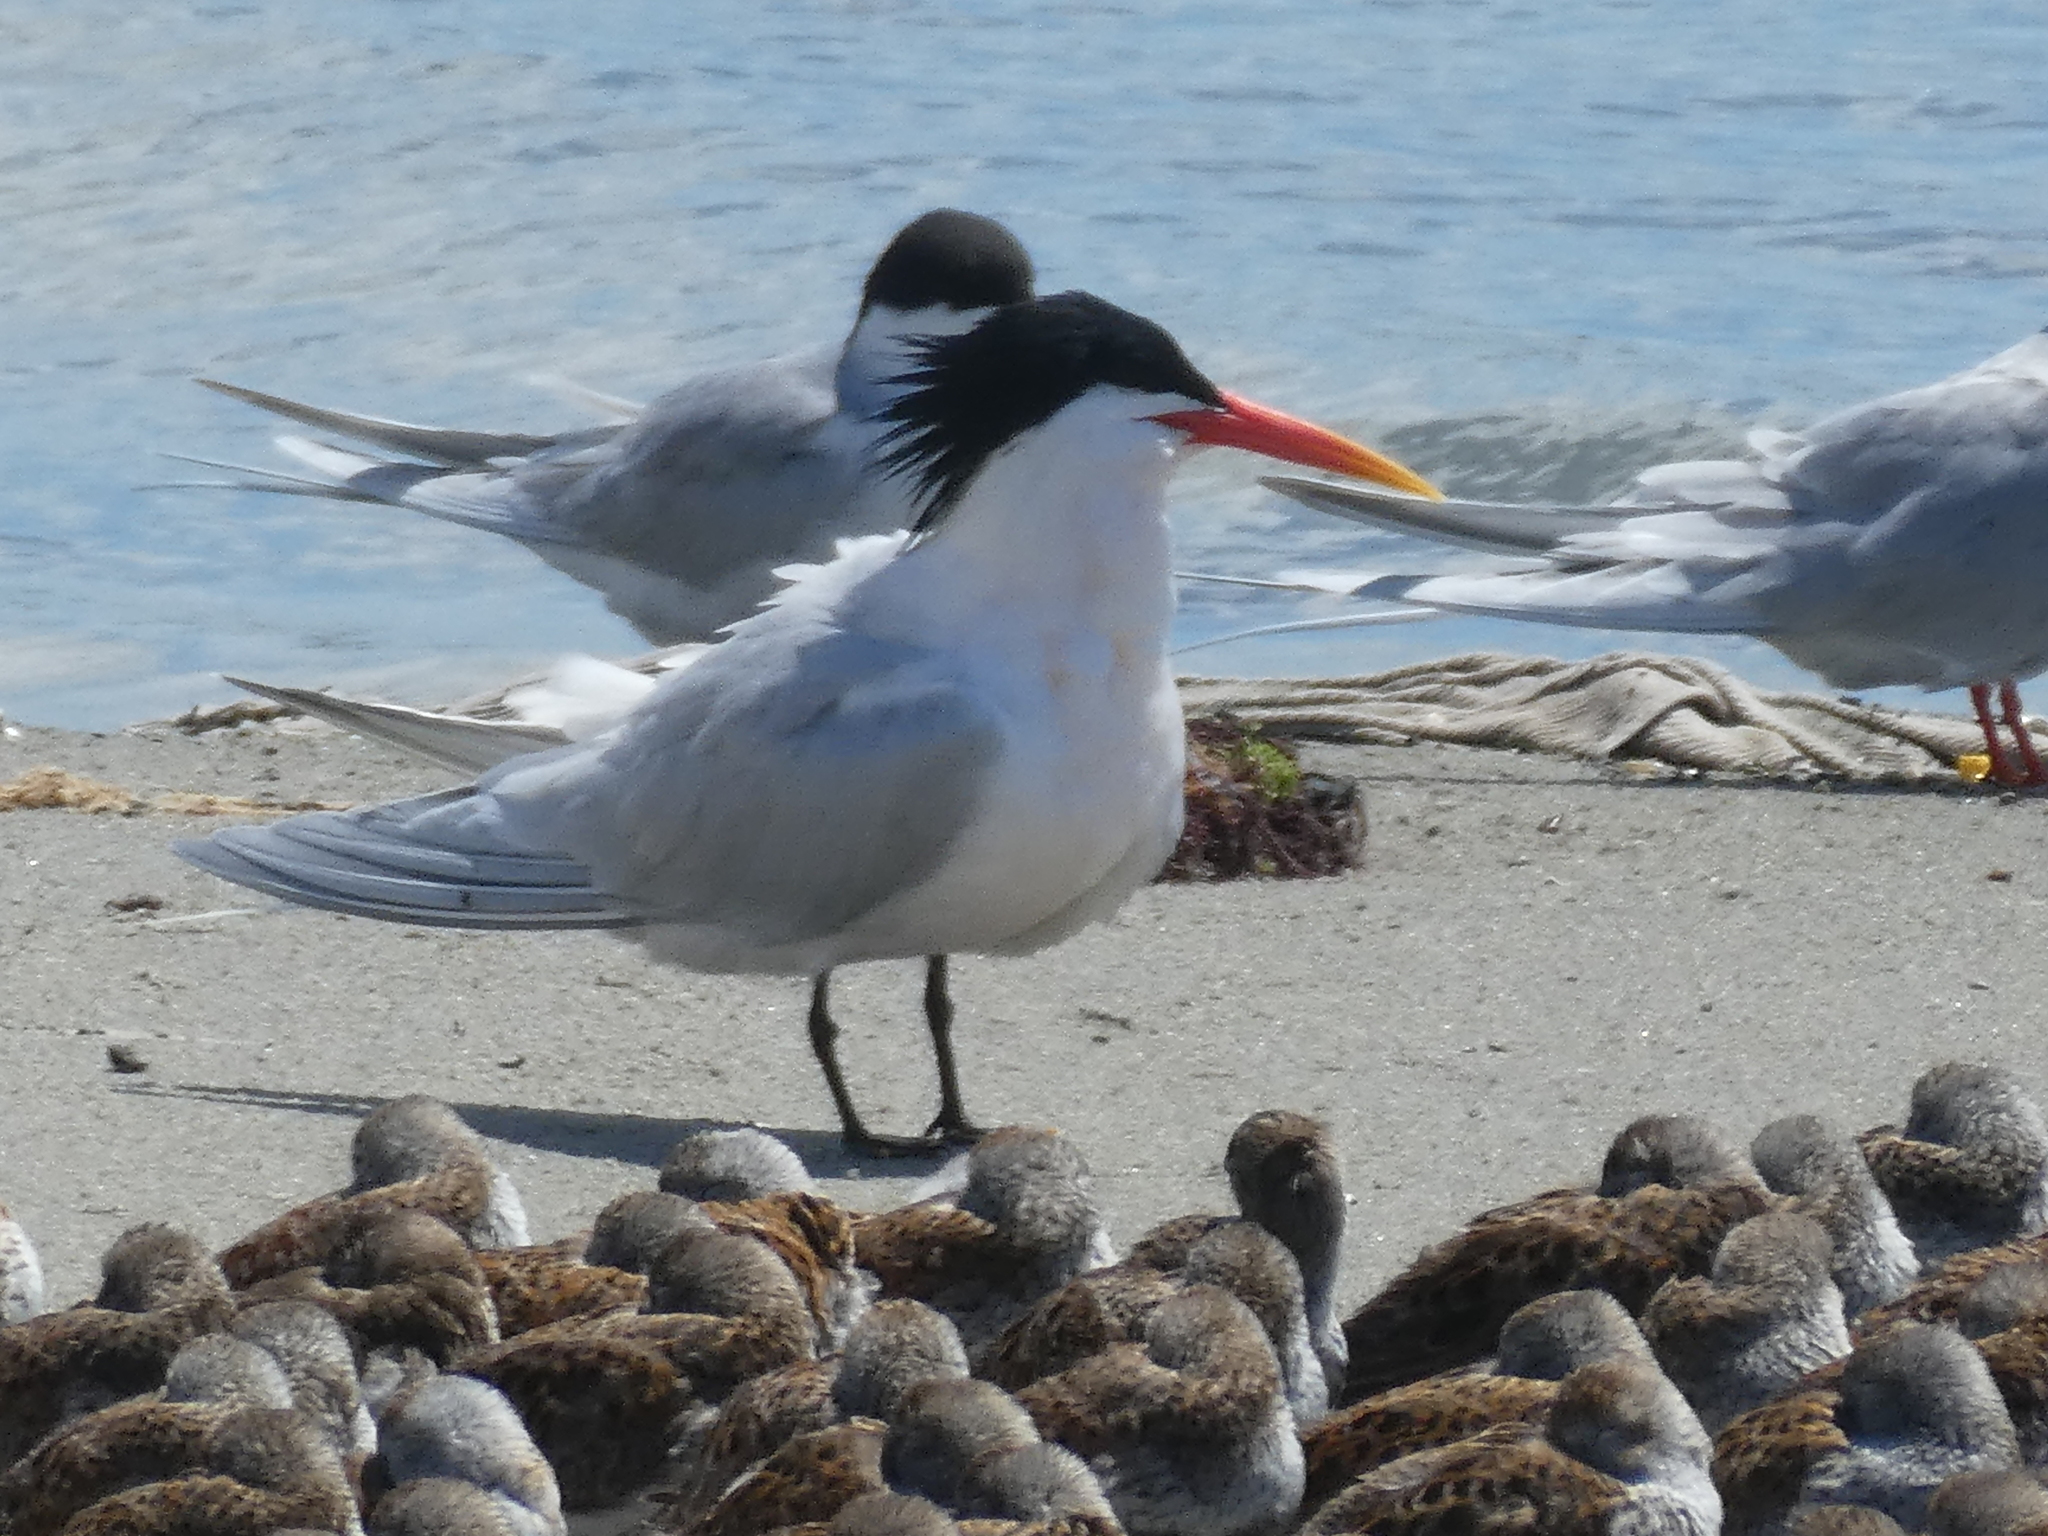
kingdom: Animalia
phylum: Chordata
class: Aves
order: Charadriiformes
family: Laridae
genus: Thalasseus
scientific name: Thalasseus elegans
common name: Elegant tern
